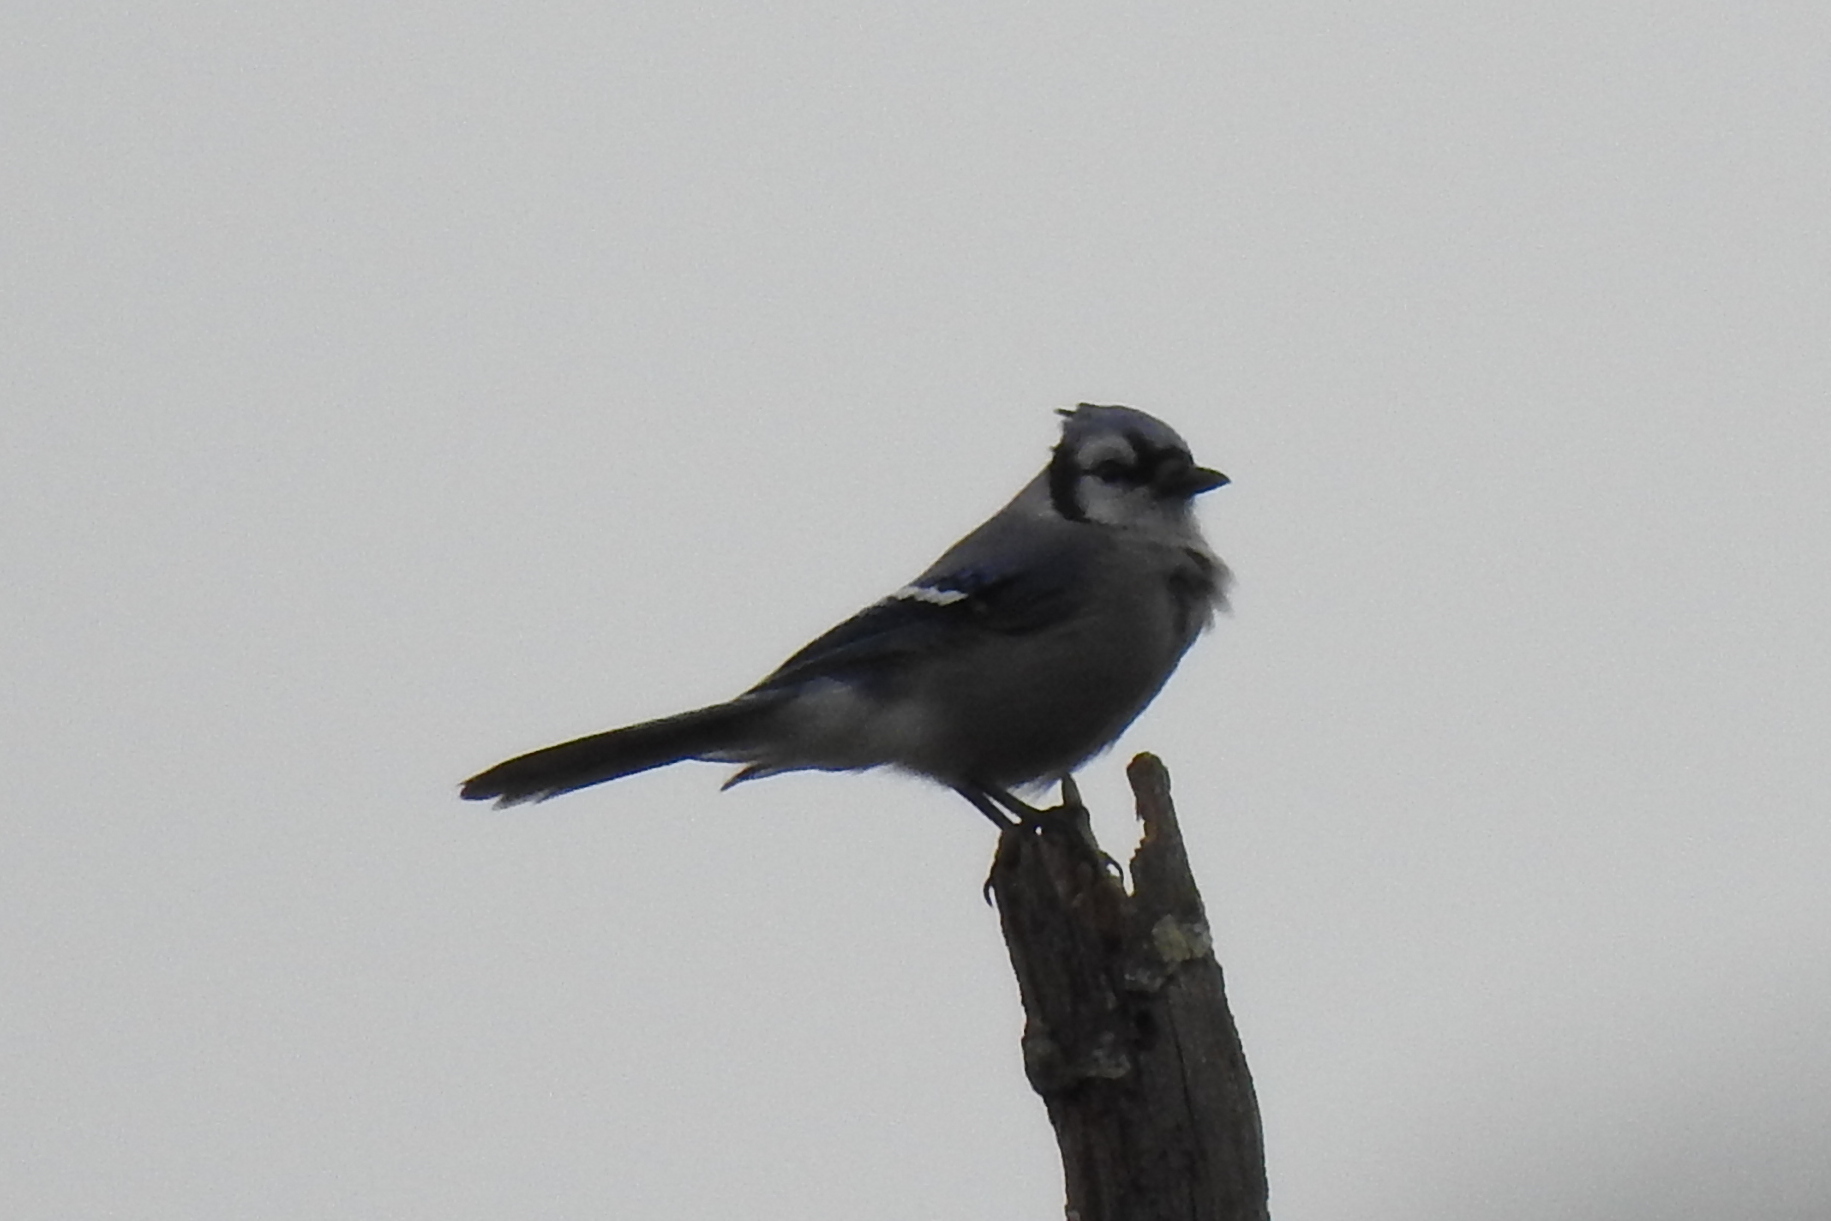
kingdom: Animalia
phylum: Chordata
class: Aves
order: Passeriformes
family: Corvidae
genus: Cyanocitta
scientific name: Cyanocitta cristata
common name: Blue jay
